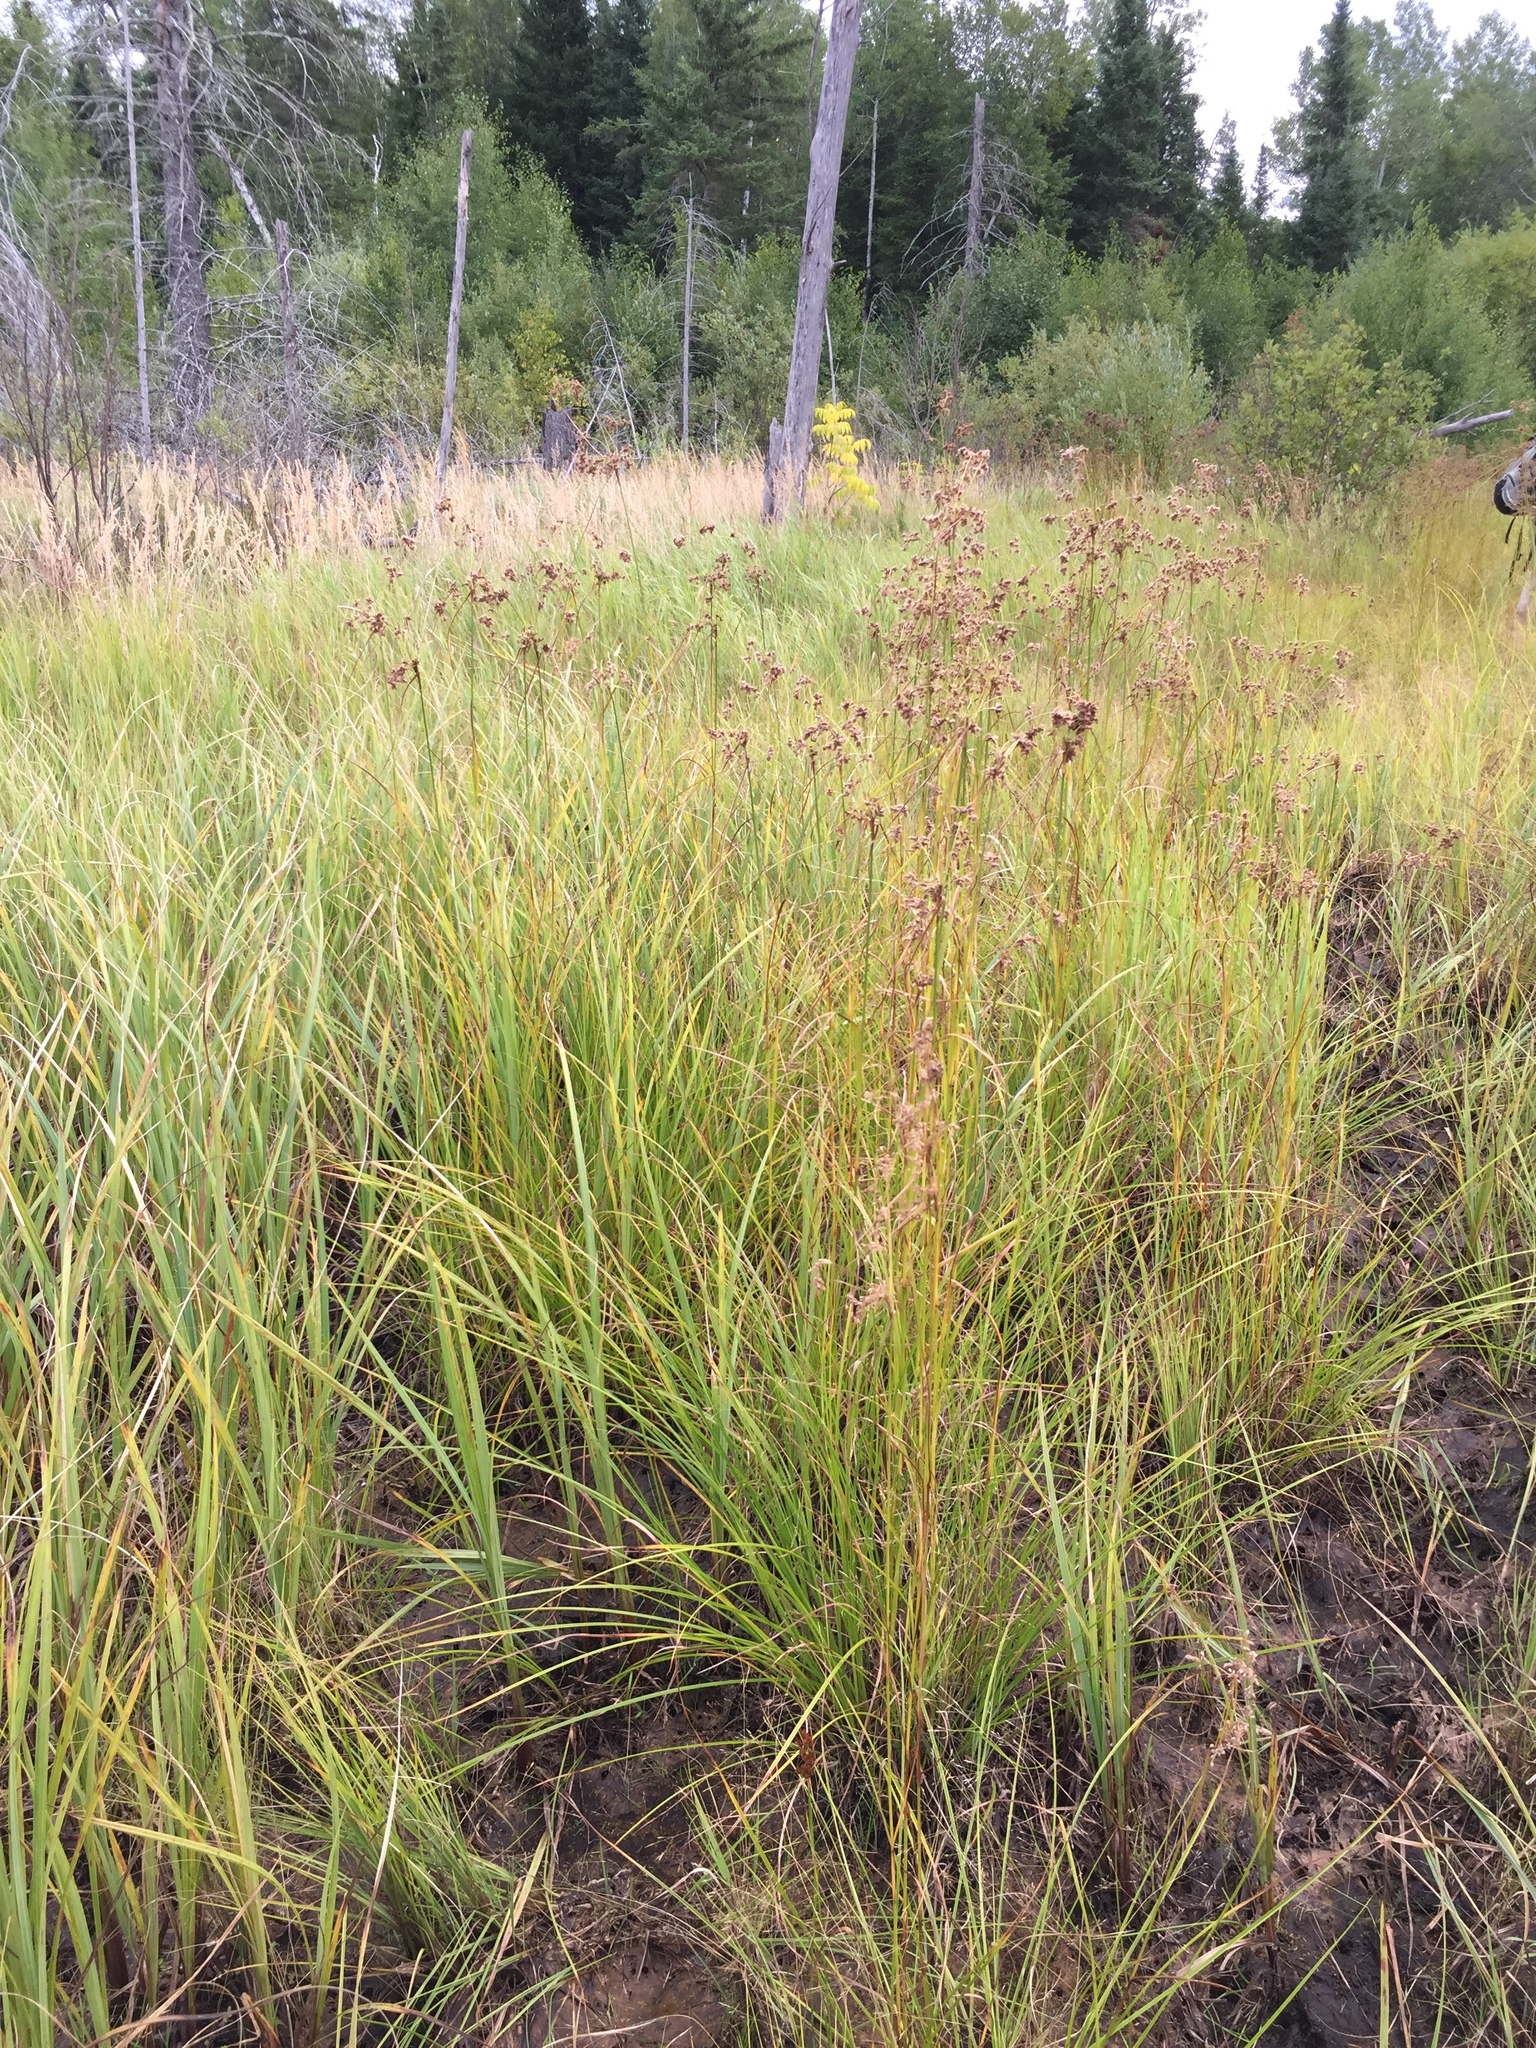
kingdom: Plantae
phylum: Tracheophyta
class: Liliopsida
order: Poales
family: Cyperaceae
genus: Scirpus
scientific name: Scirpus cyperinus
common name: Black-sheathed bulrush
